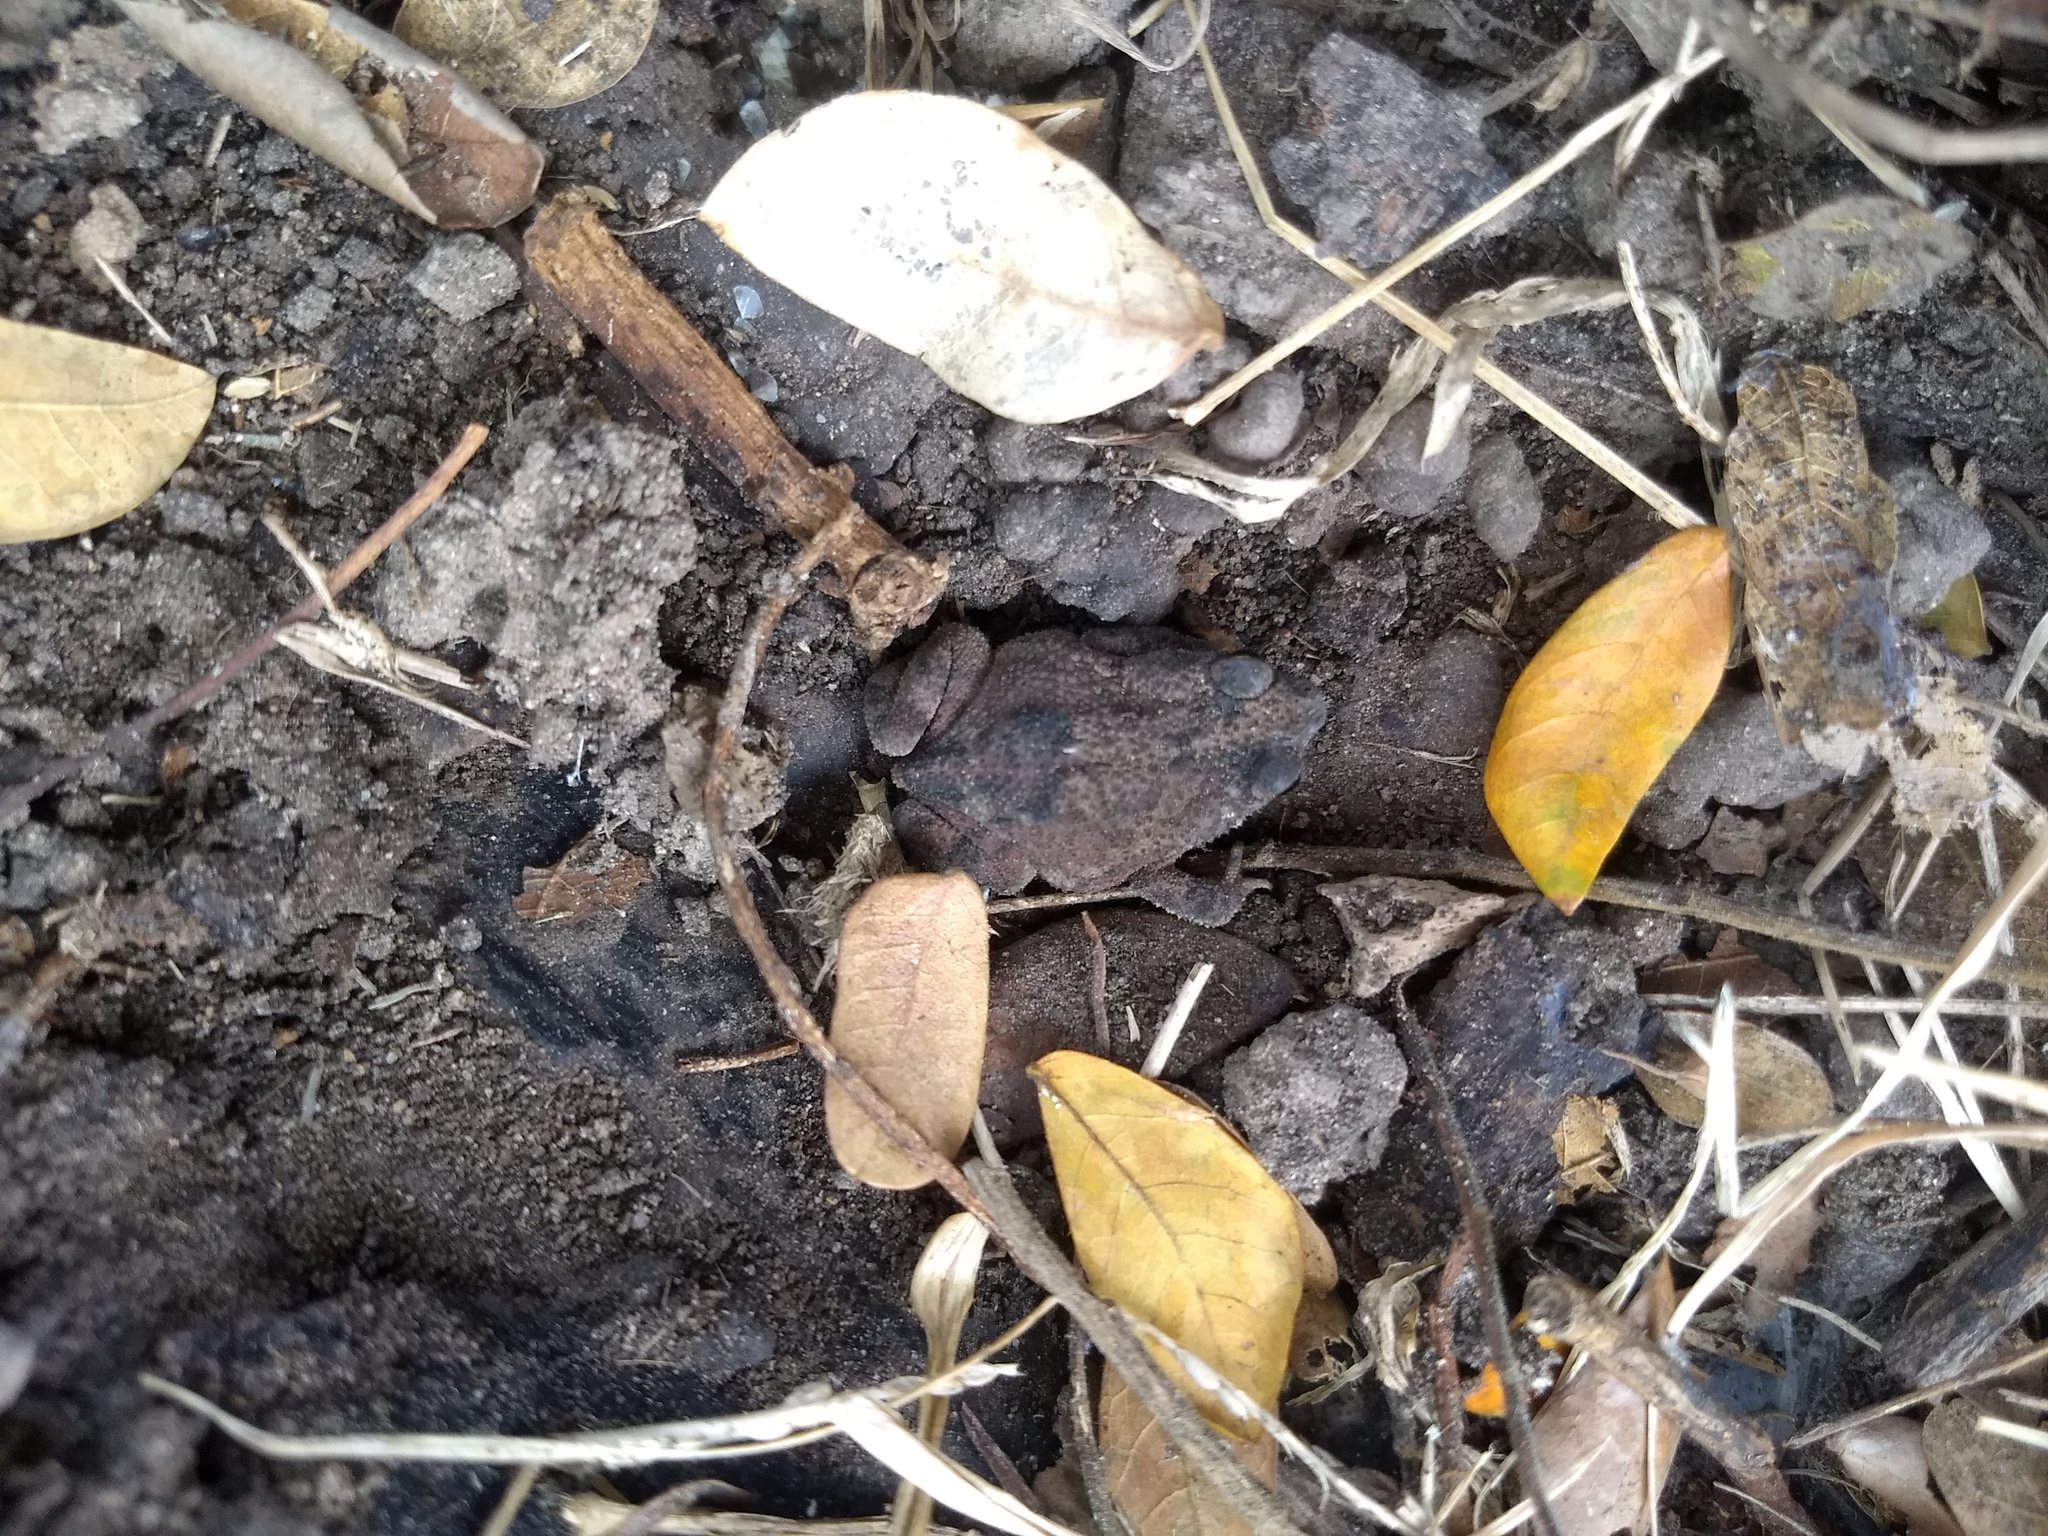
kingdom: Animalia
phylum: Chordata
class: Amphibia
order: Anura
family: Bufonidae
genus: Rhinella
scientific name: Rhinella humboldti
